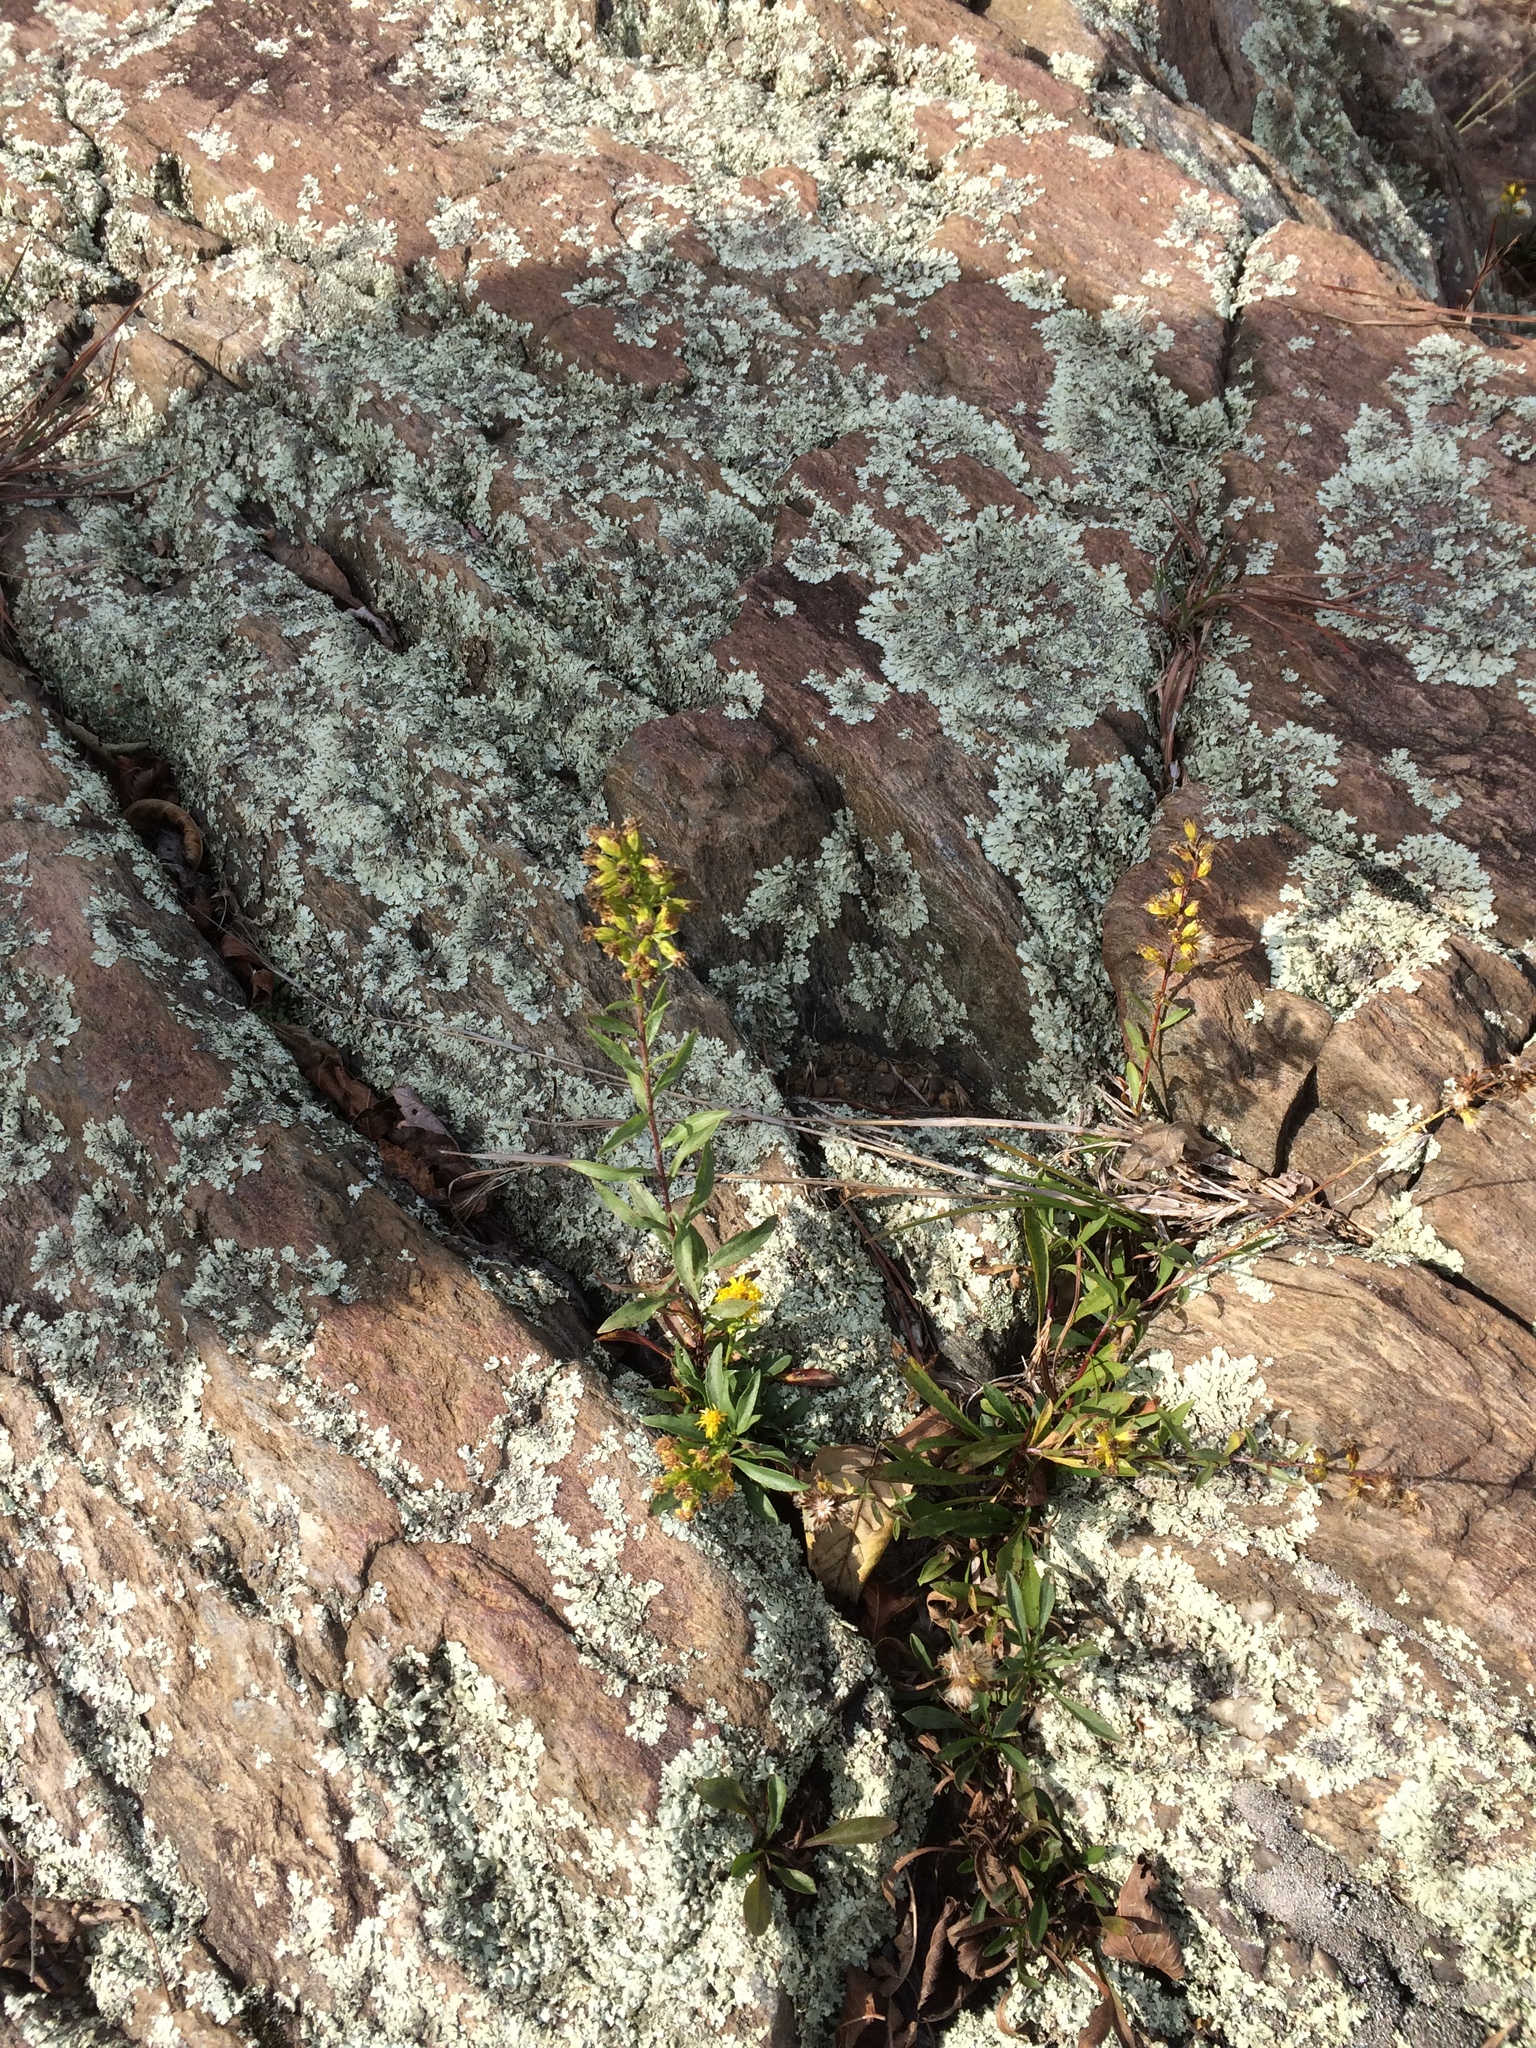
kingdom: Plantae
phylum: Tracheophyta
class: Magnoliopsida
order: Asterales
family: Asteraceae
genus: Solidago
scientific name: Solidago racemosa
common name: Lake ontario goldenrod
